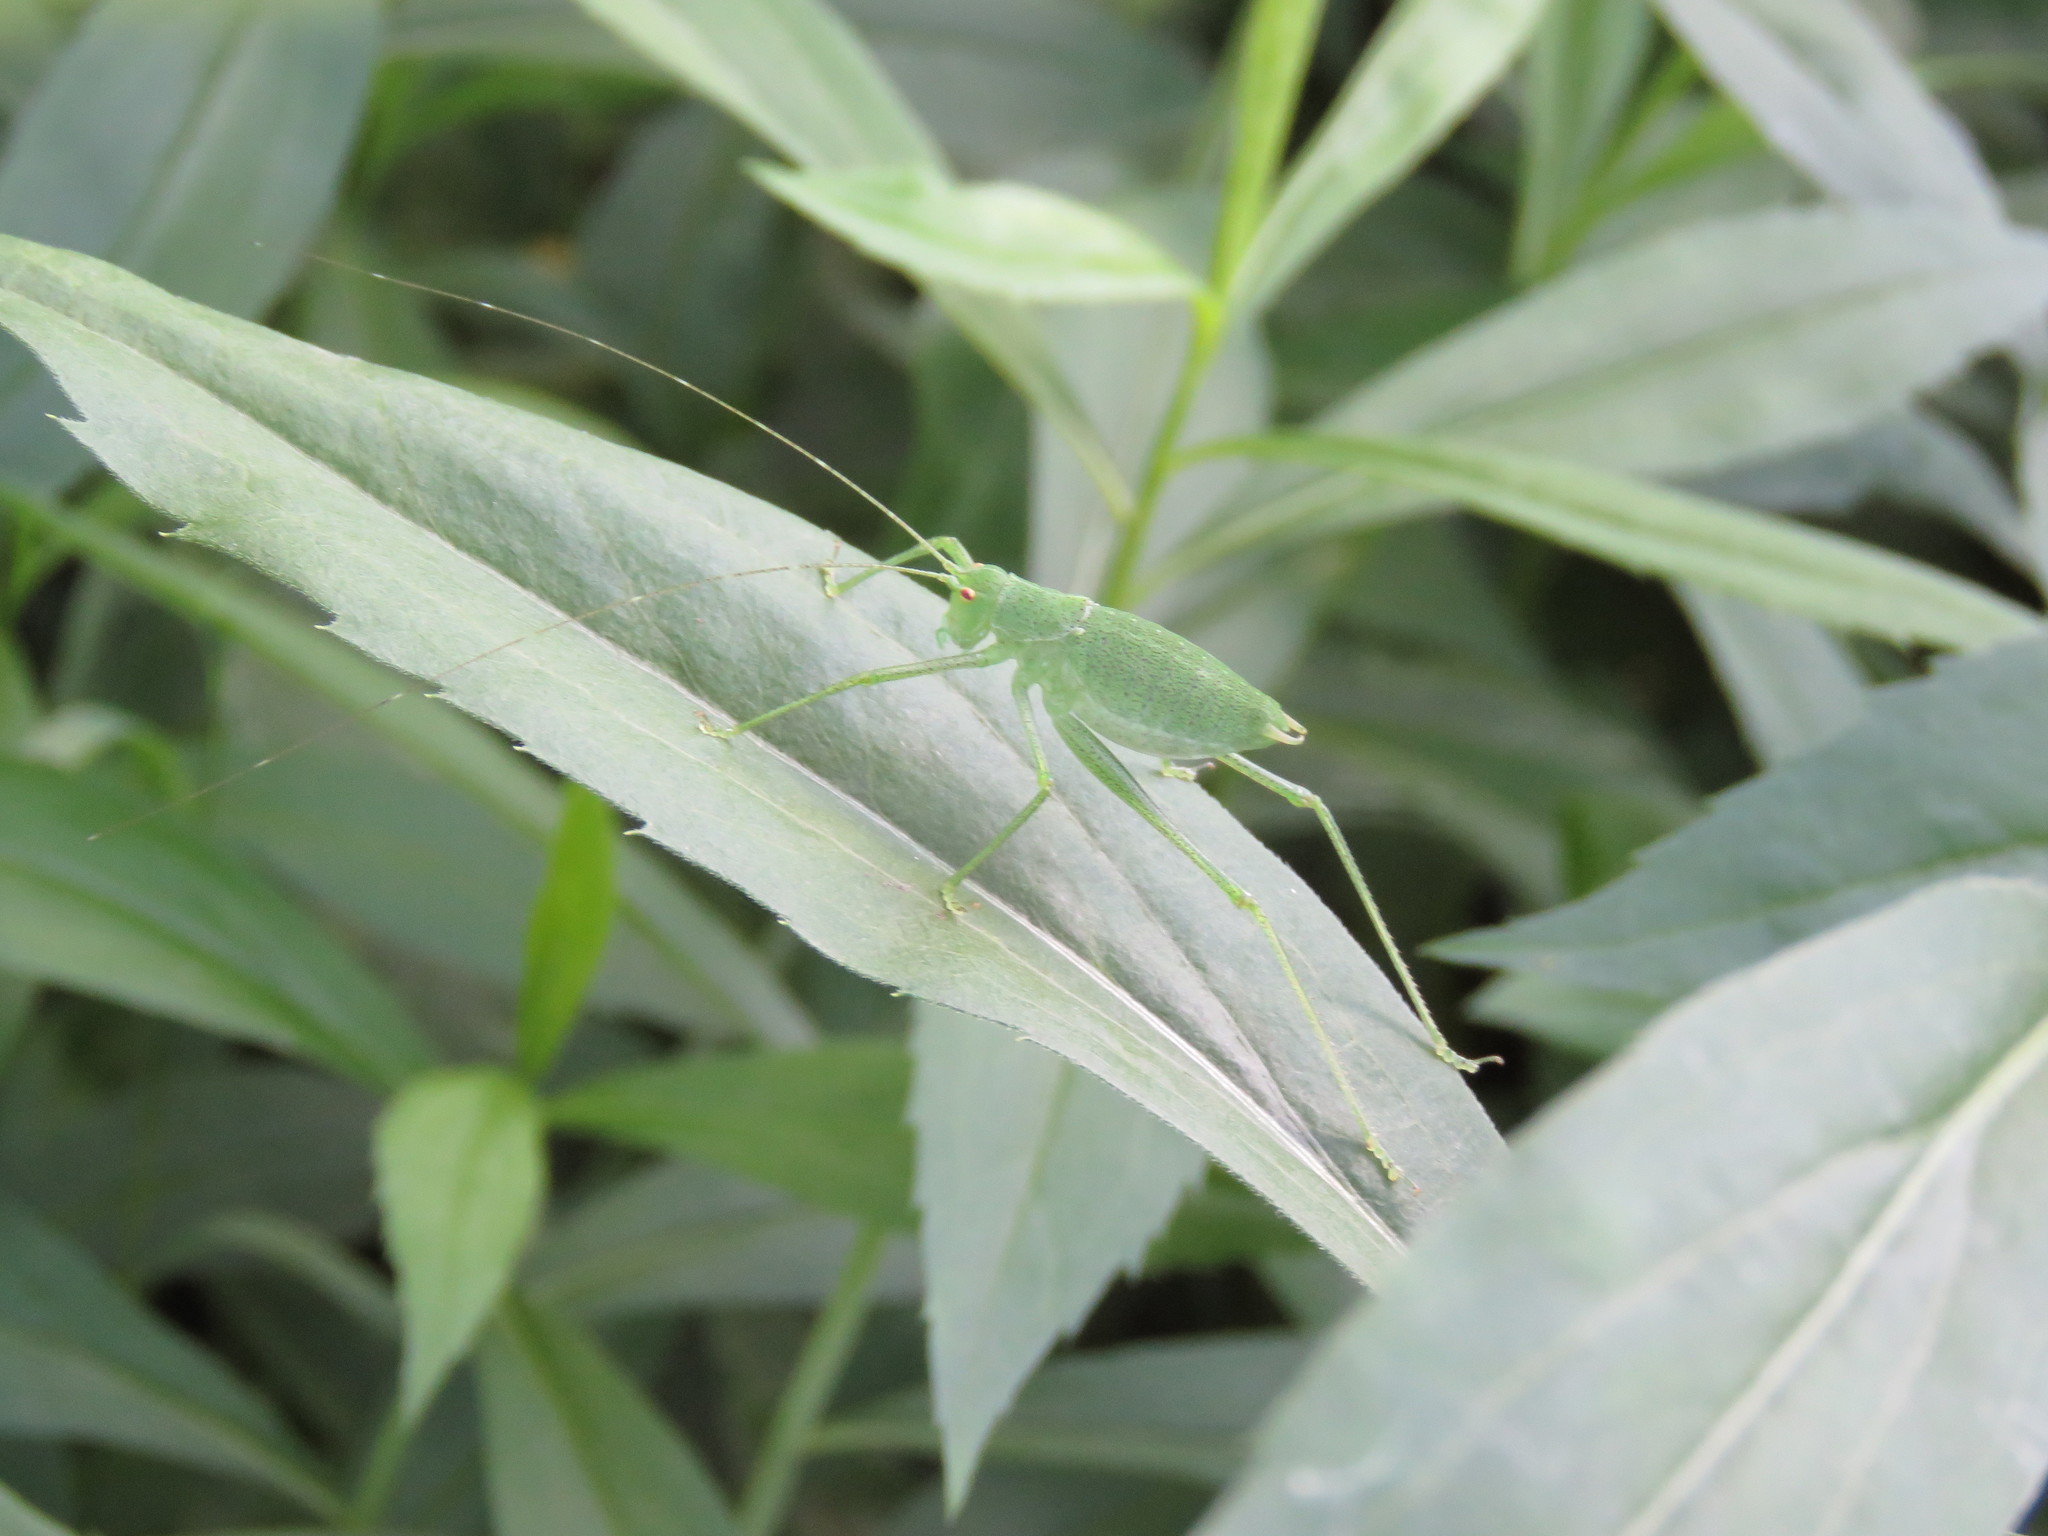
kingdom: Animalia
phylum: Arthropoda
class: Insecta
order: Orthoptera
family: Tettigoniidae
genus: Poecilimon
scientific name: Poecilimon schmidtii
